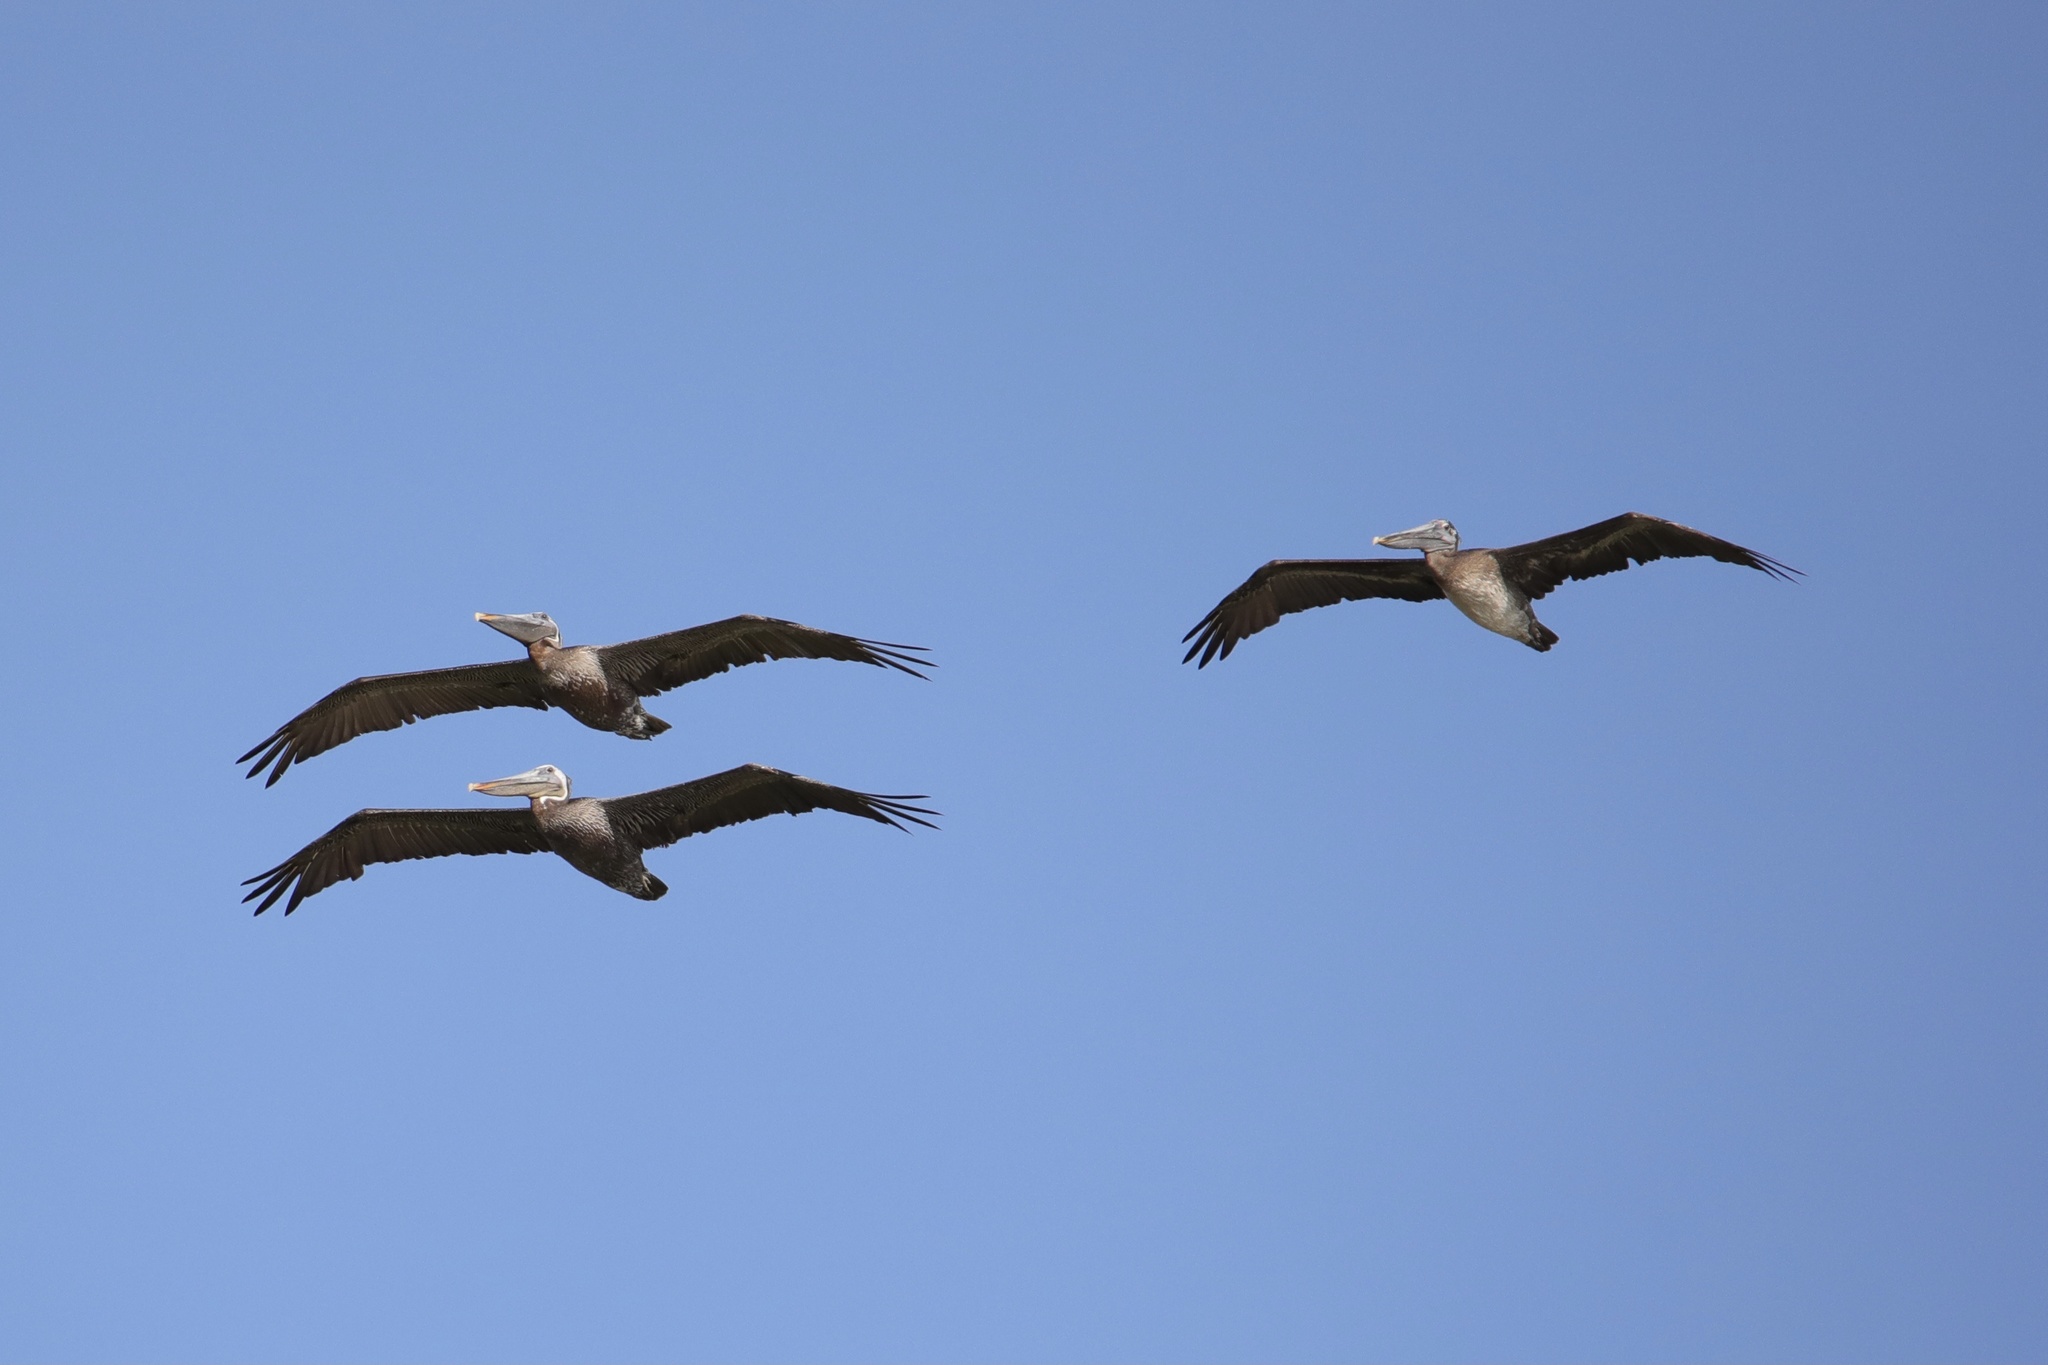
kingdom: Animalia
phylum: Chordata
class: Aves
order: Pelecaniformes
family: Pelecanidae
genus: Pelecanus
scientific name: Pelecanus occidentalis
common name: Brown pelican
